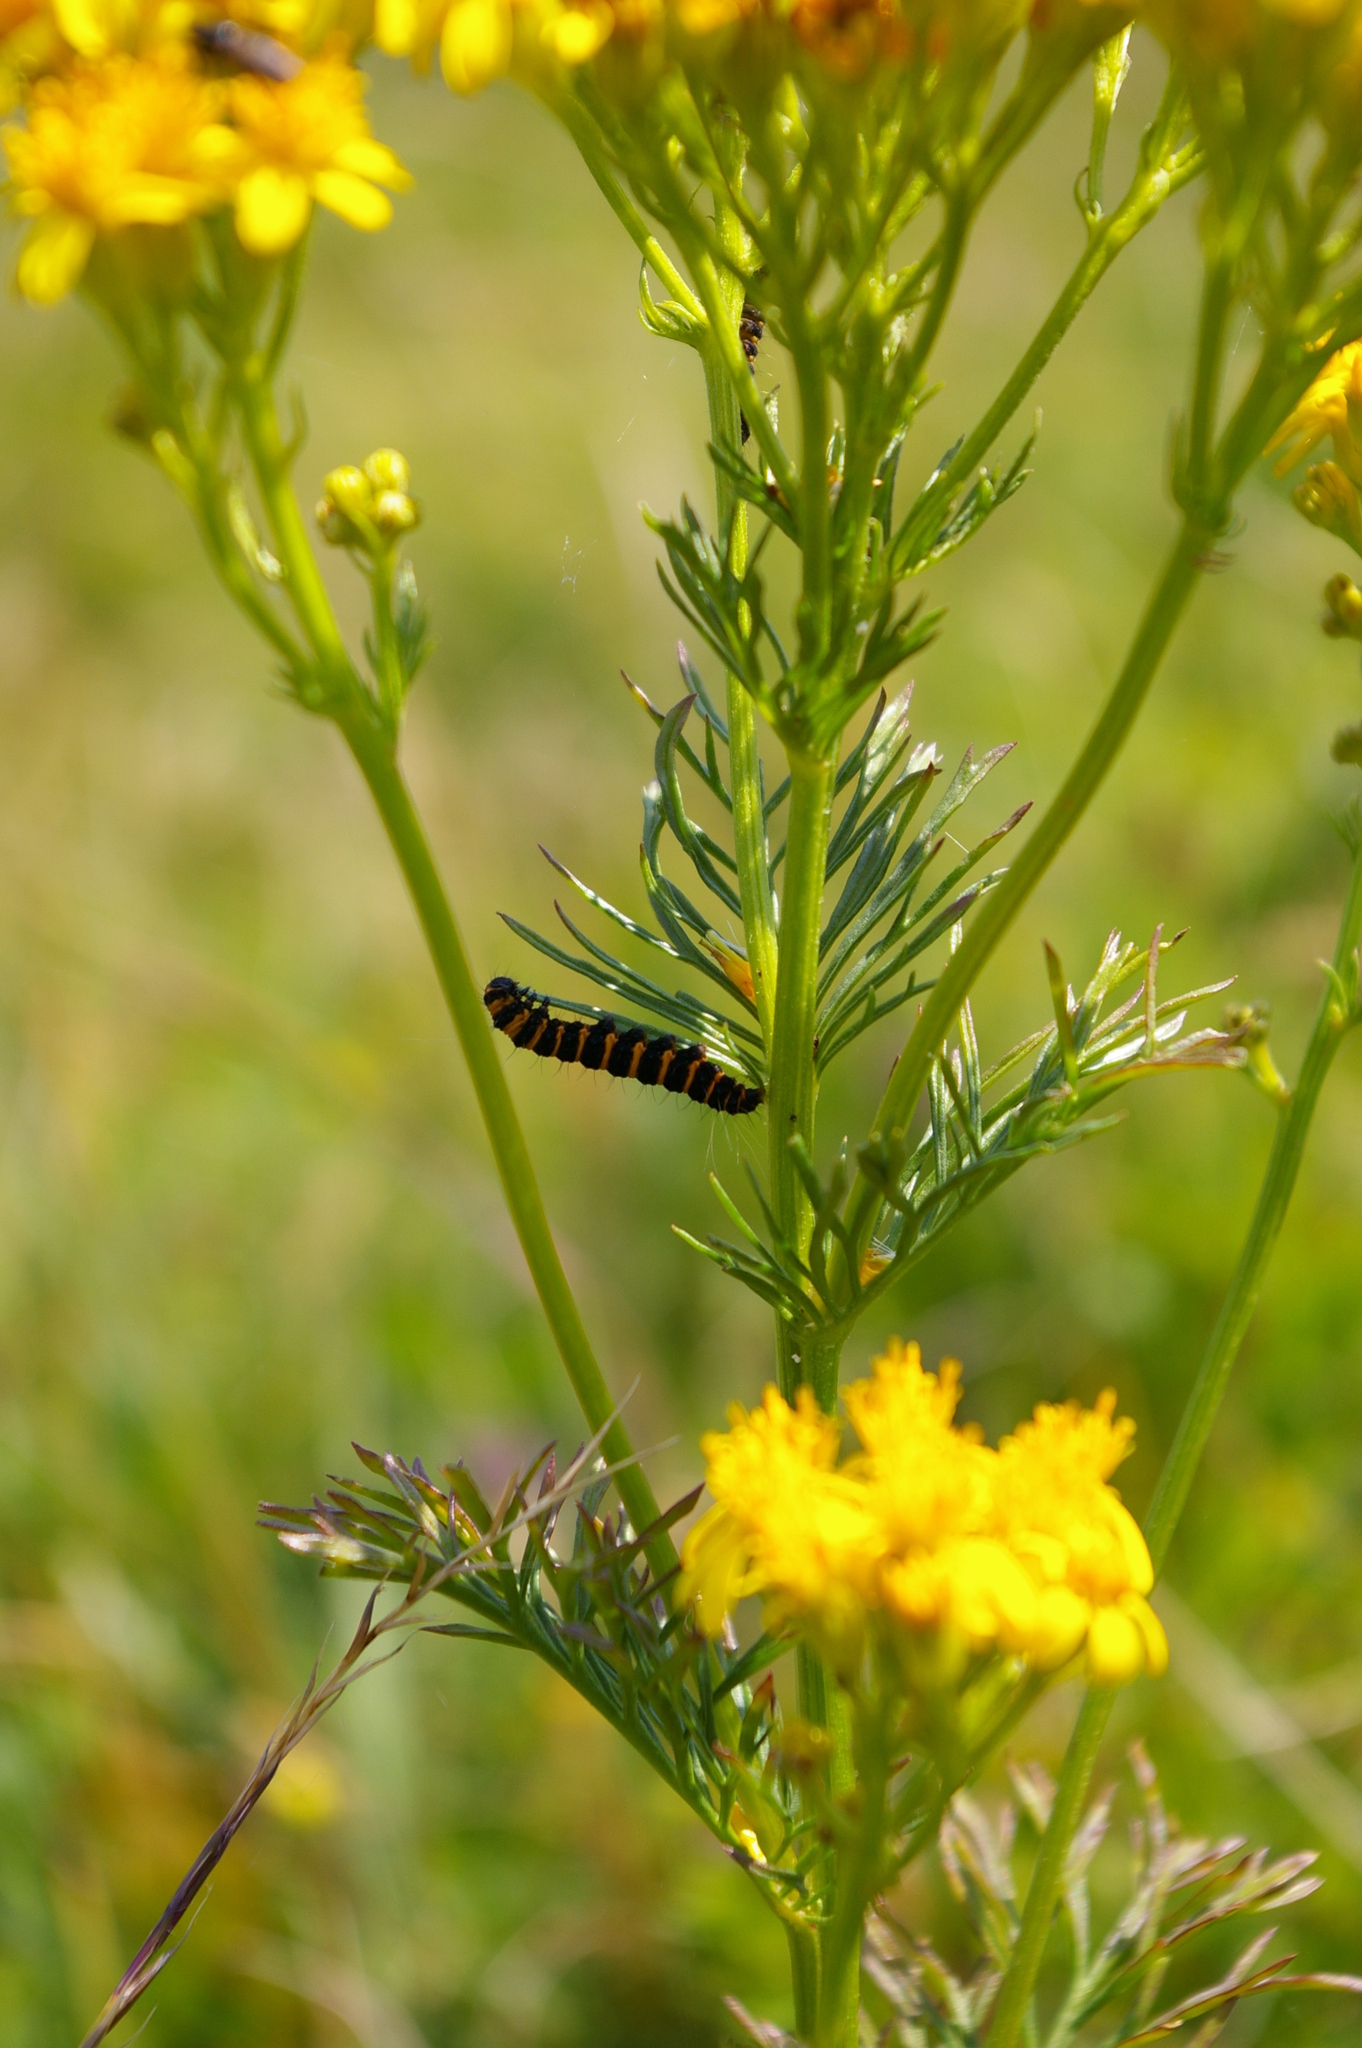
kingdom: Animalia
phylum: Arthropoda
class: Insecta
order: Lepidoptera
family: Erebidae
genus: Tyria
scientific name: Tyria jacobaeae
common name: Cinnabar
